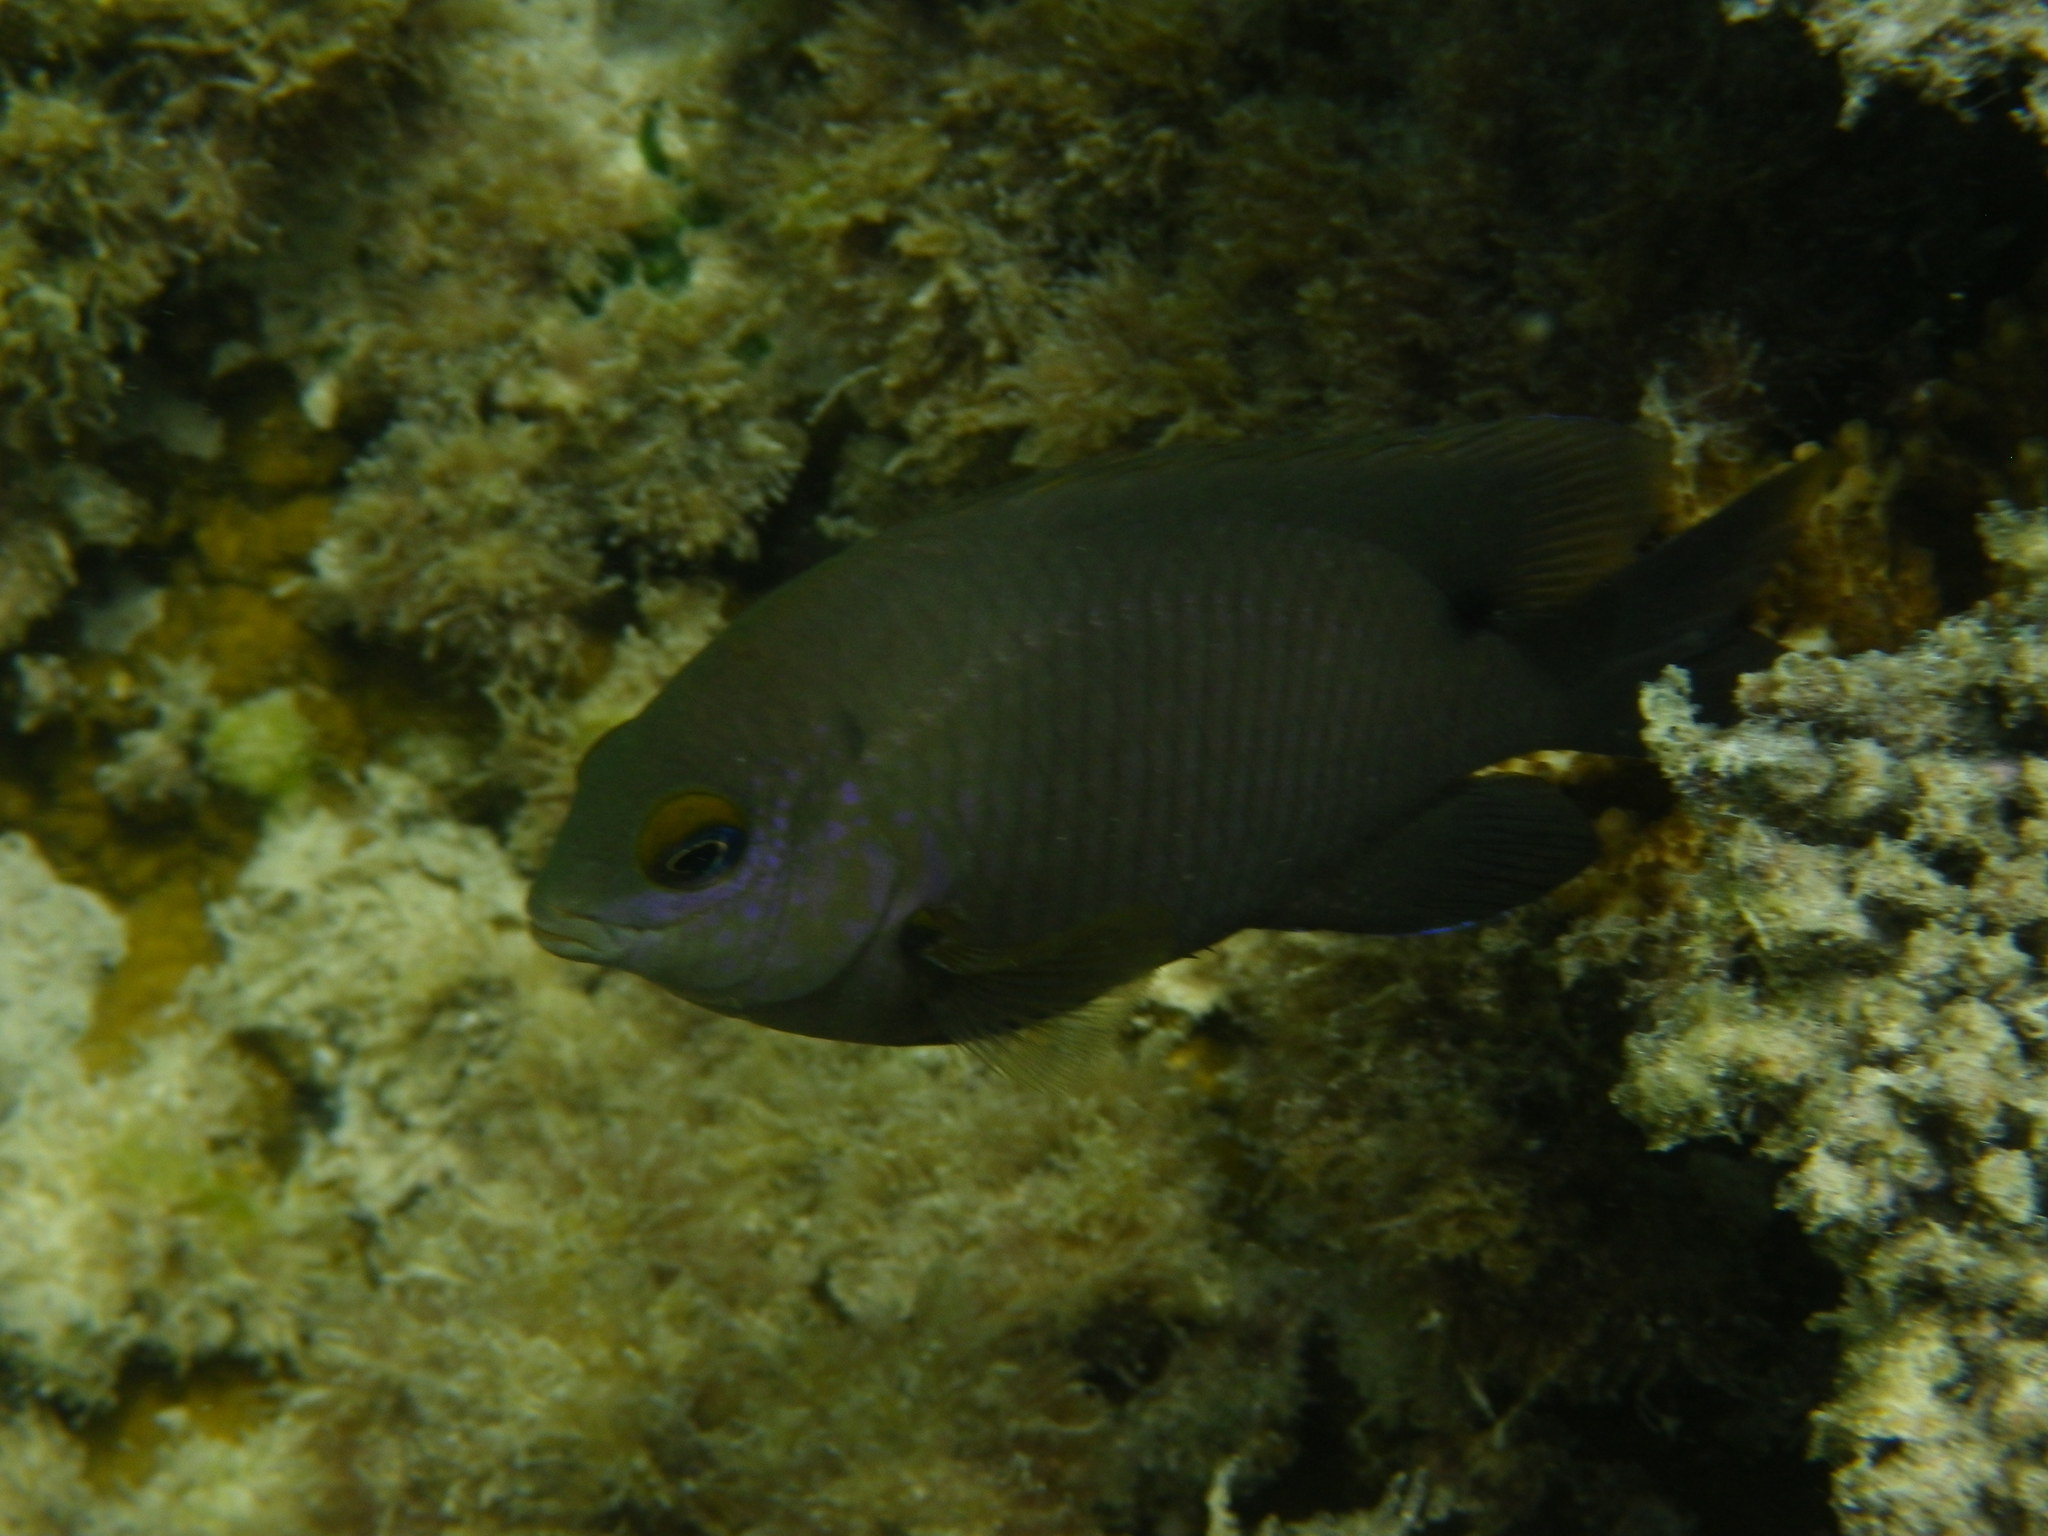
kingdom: Animalia
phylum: Chordata
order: Perciformes
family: Pomacentridae
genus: Stegastes
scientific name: Stegastes nigricans
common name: Dusky gregory
